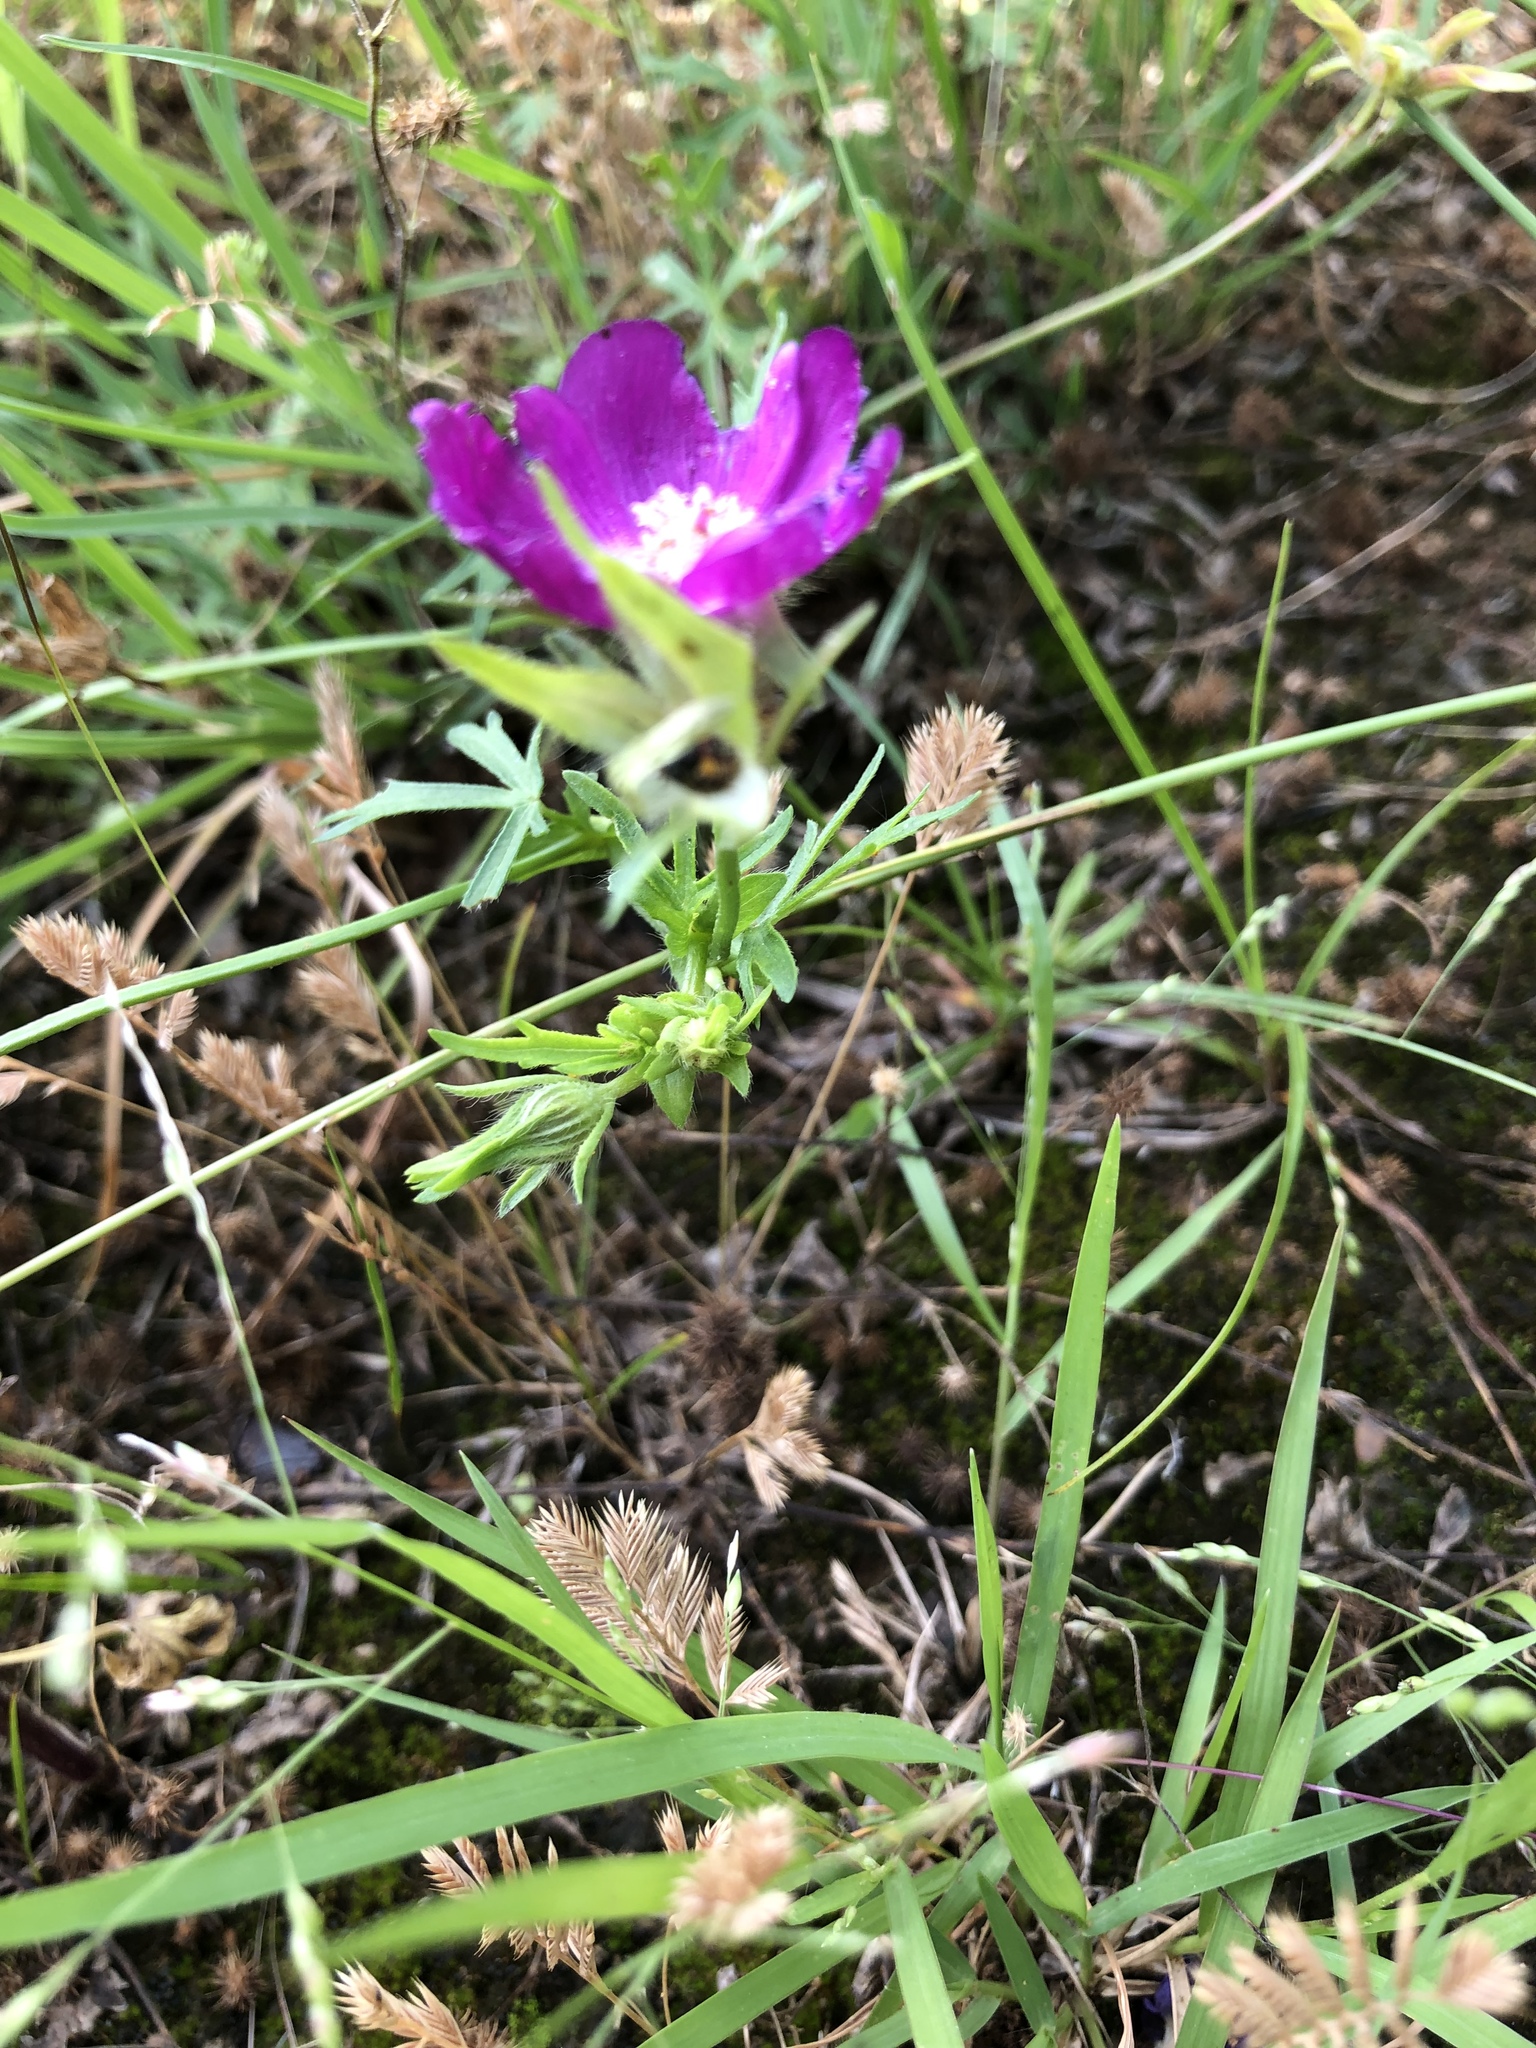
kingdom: Plantae
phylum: Tracheophyta
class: Magnoliopsida
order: Malvales
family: Malvaceae
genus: Callirhoe
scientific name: Callirhoe involucrata
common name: Purple poppy-mallow
